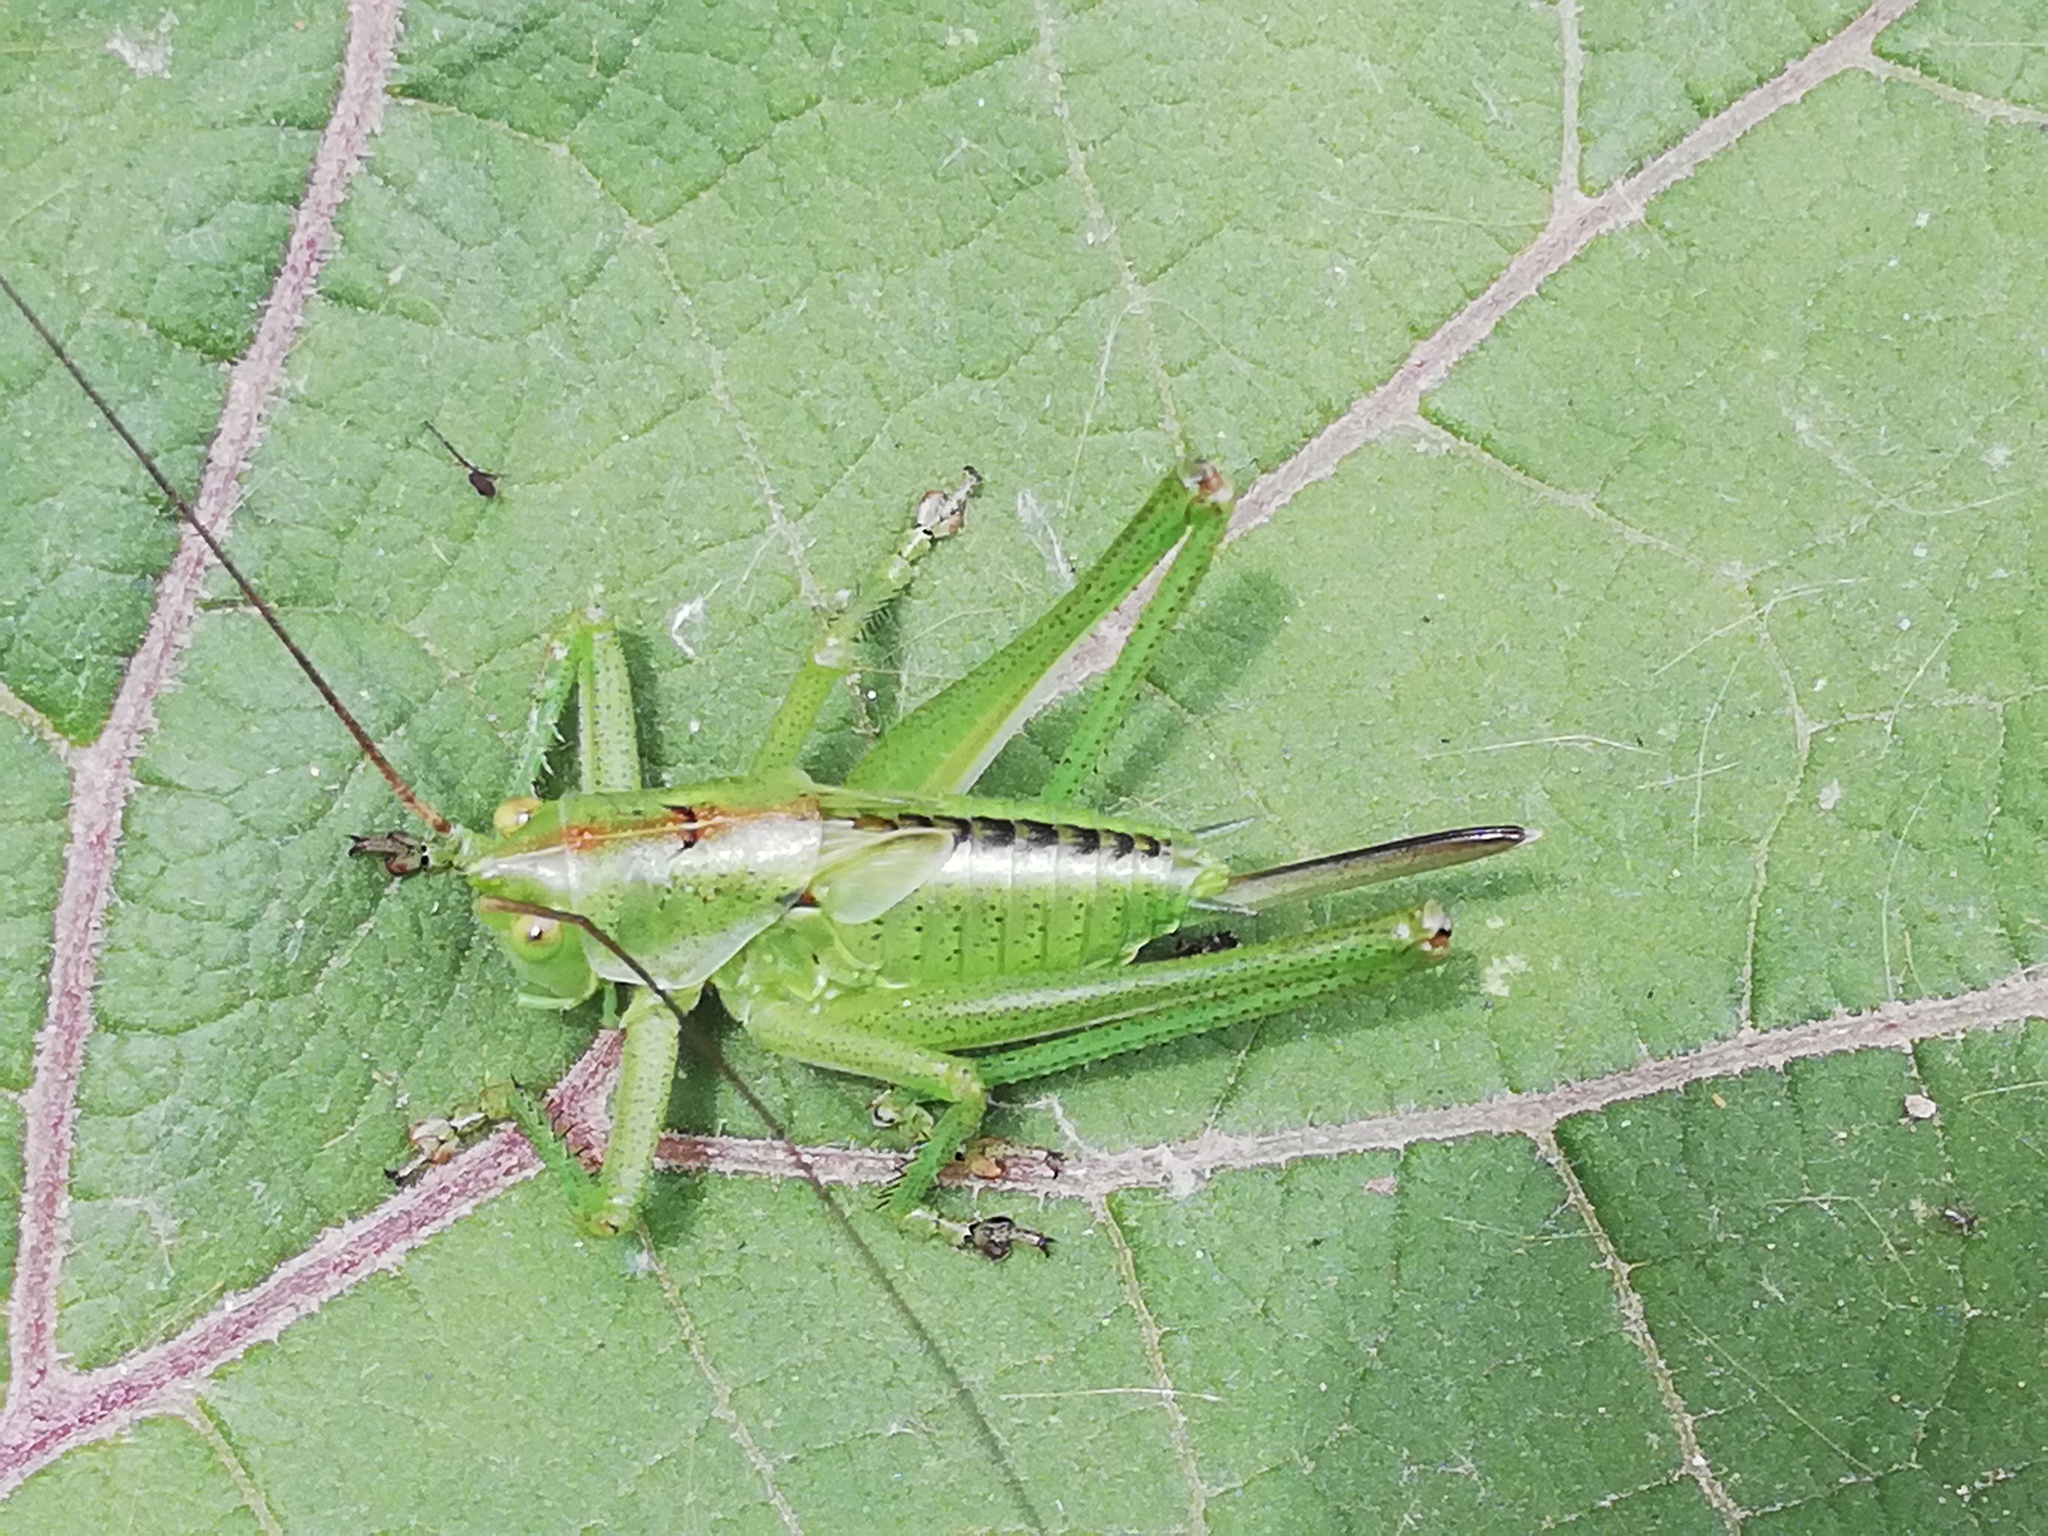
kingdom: Animalia
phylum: Arthropoda
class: Insecta
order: Orthoptera
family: Tettigoniidae
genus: Tettigonia
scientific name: Tettigonia viridissima
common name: Great green bush-cricket
